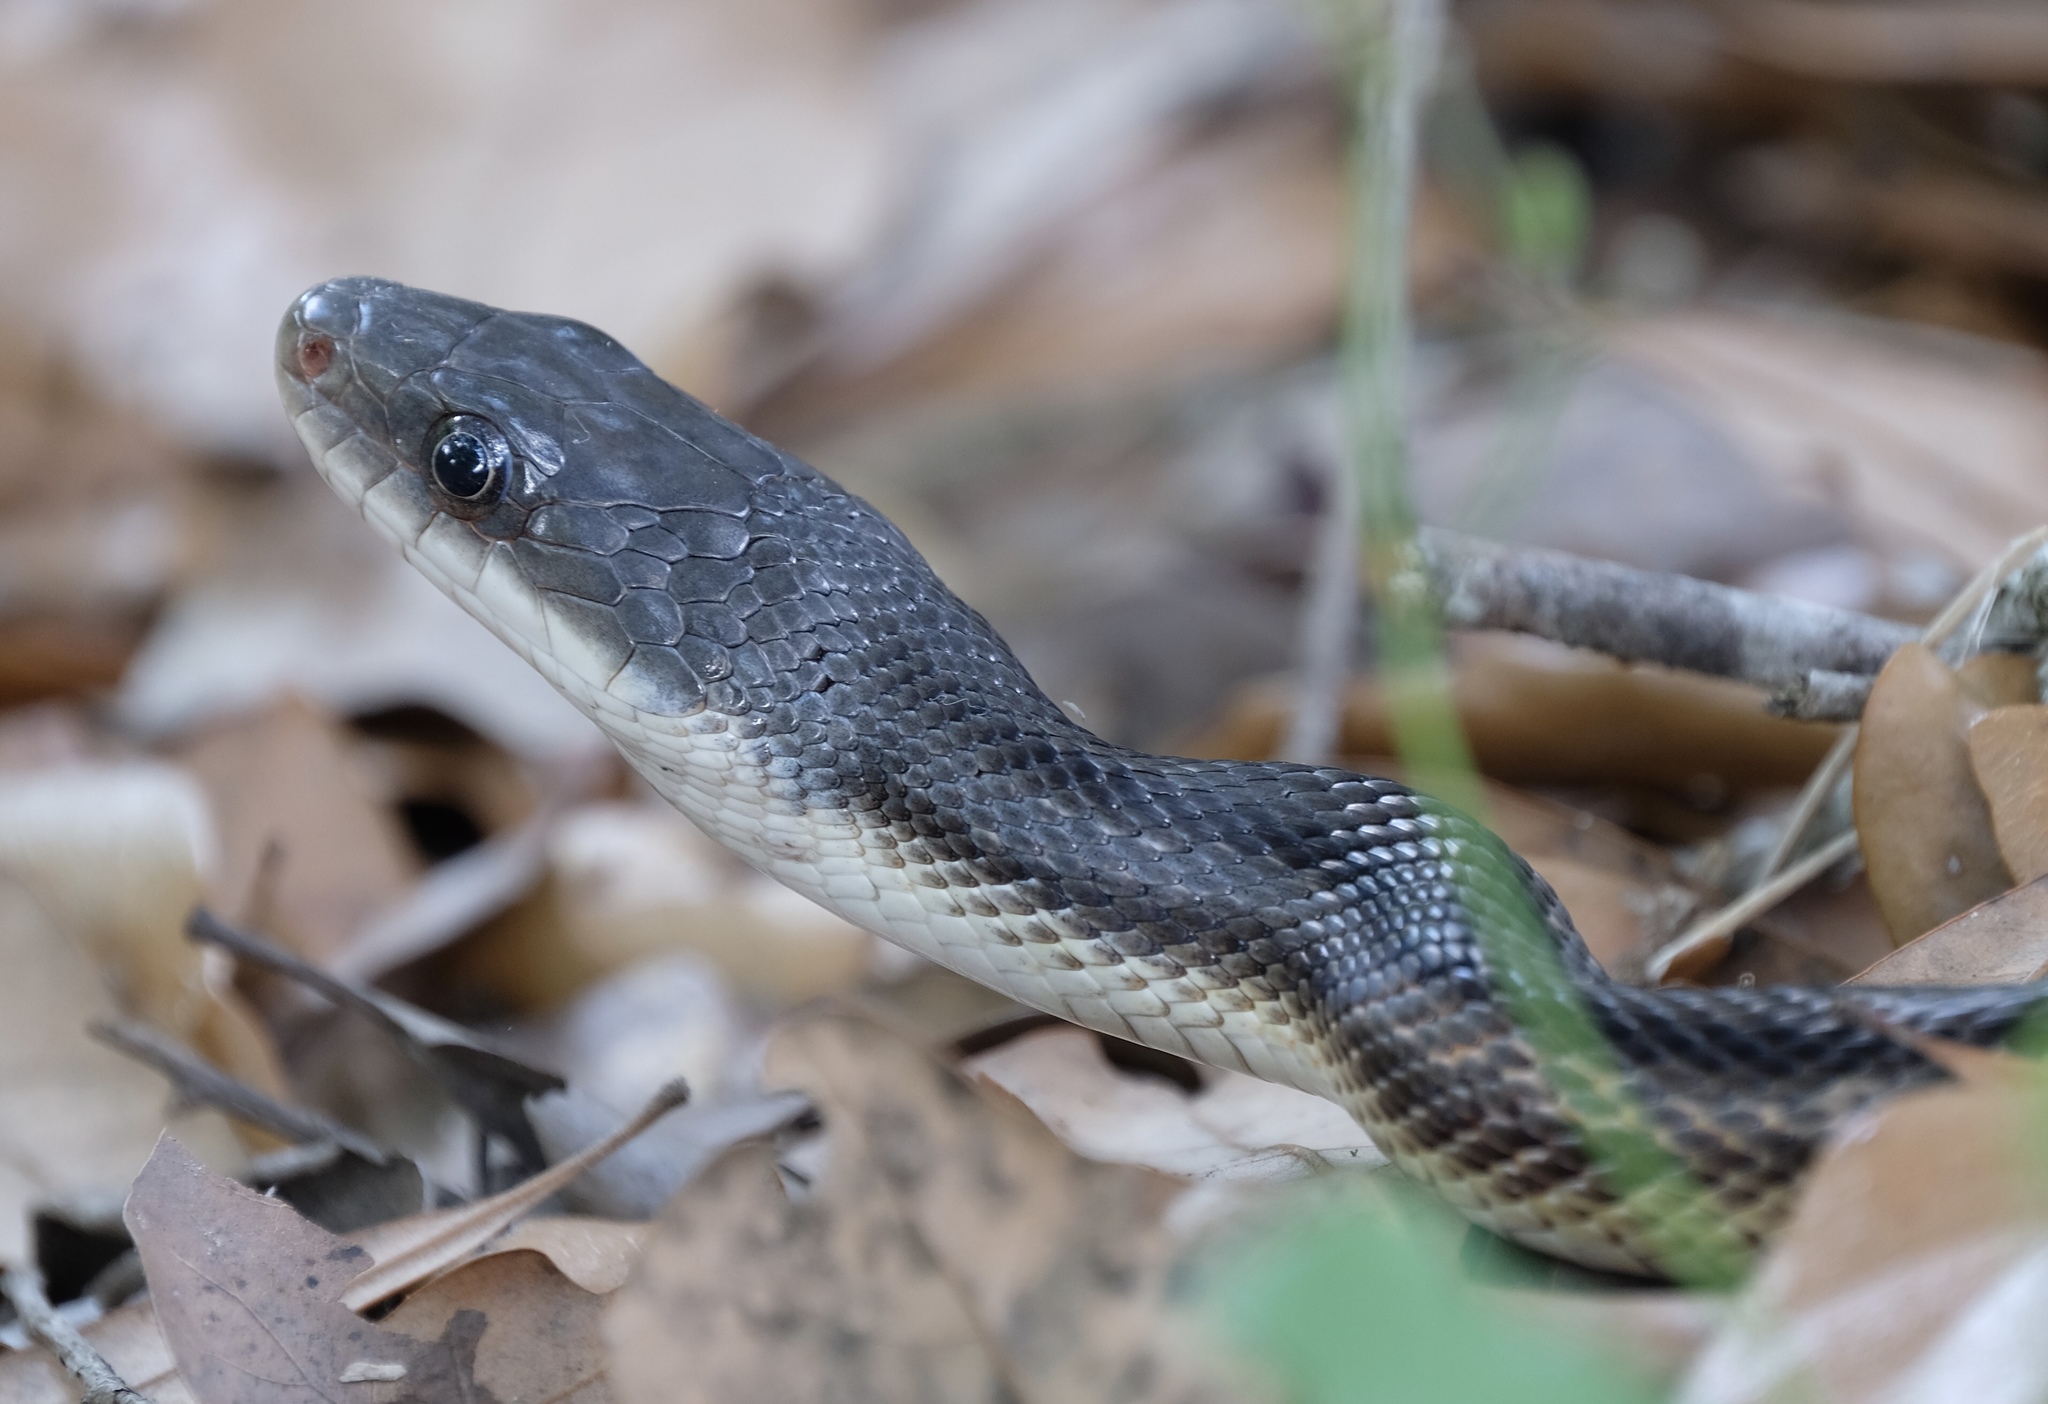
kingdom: Animalia
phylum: Chordata
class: Squamata
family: Colubridae
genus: Pantherophis
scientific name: Pantherophis obsoletus
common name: Black rat snake
